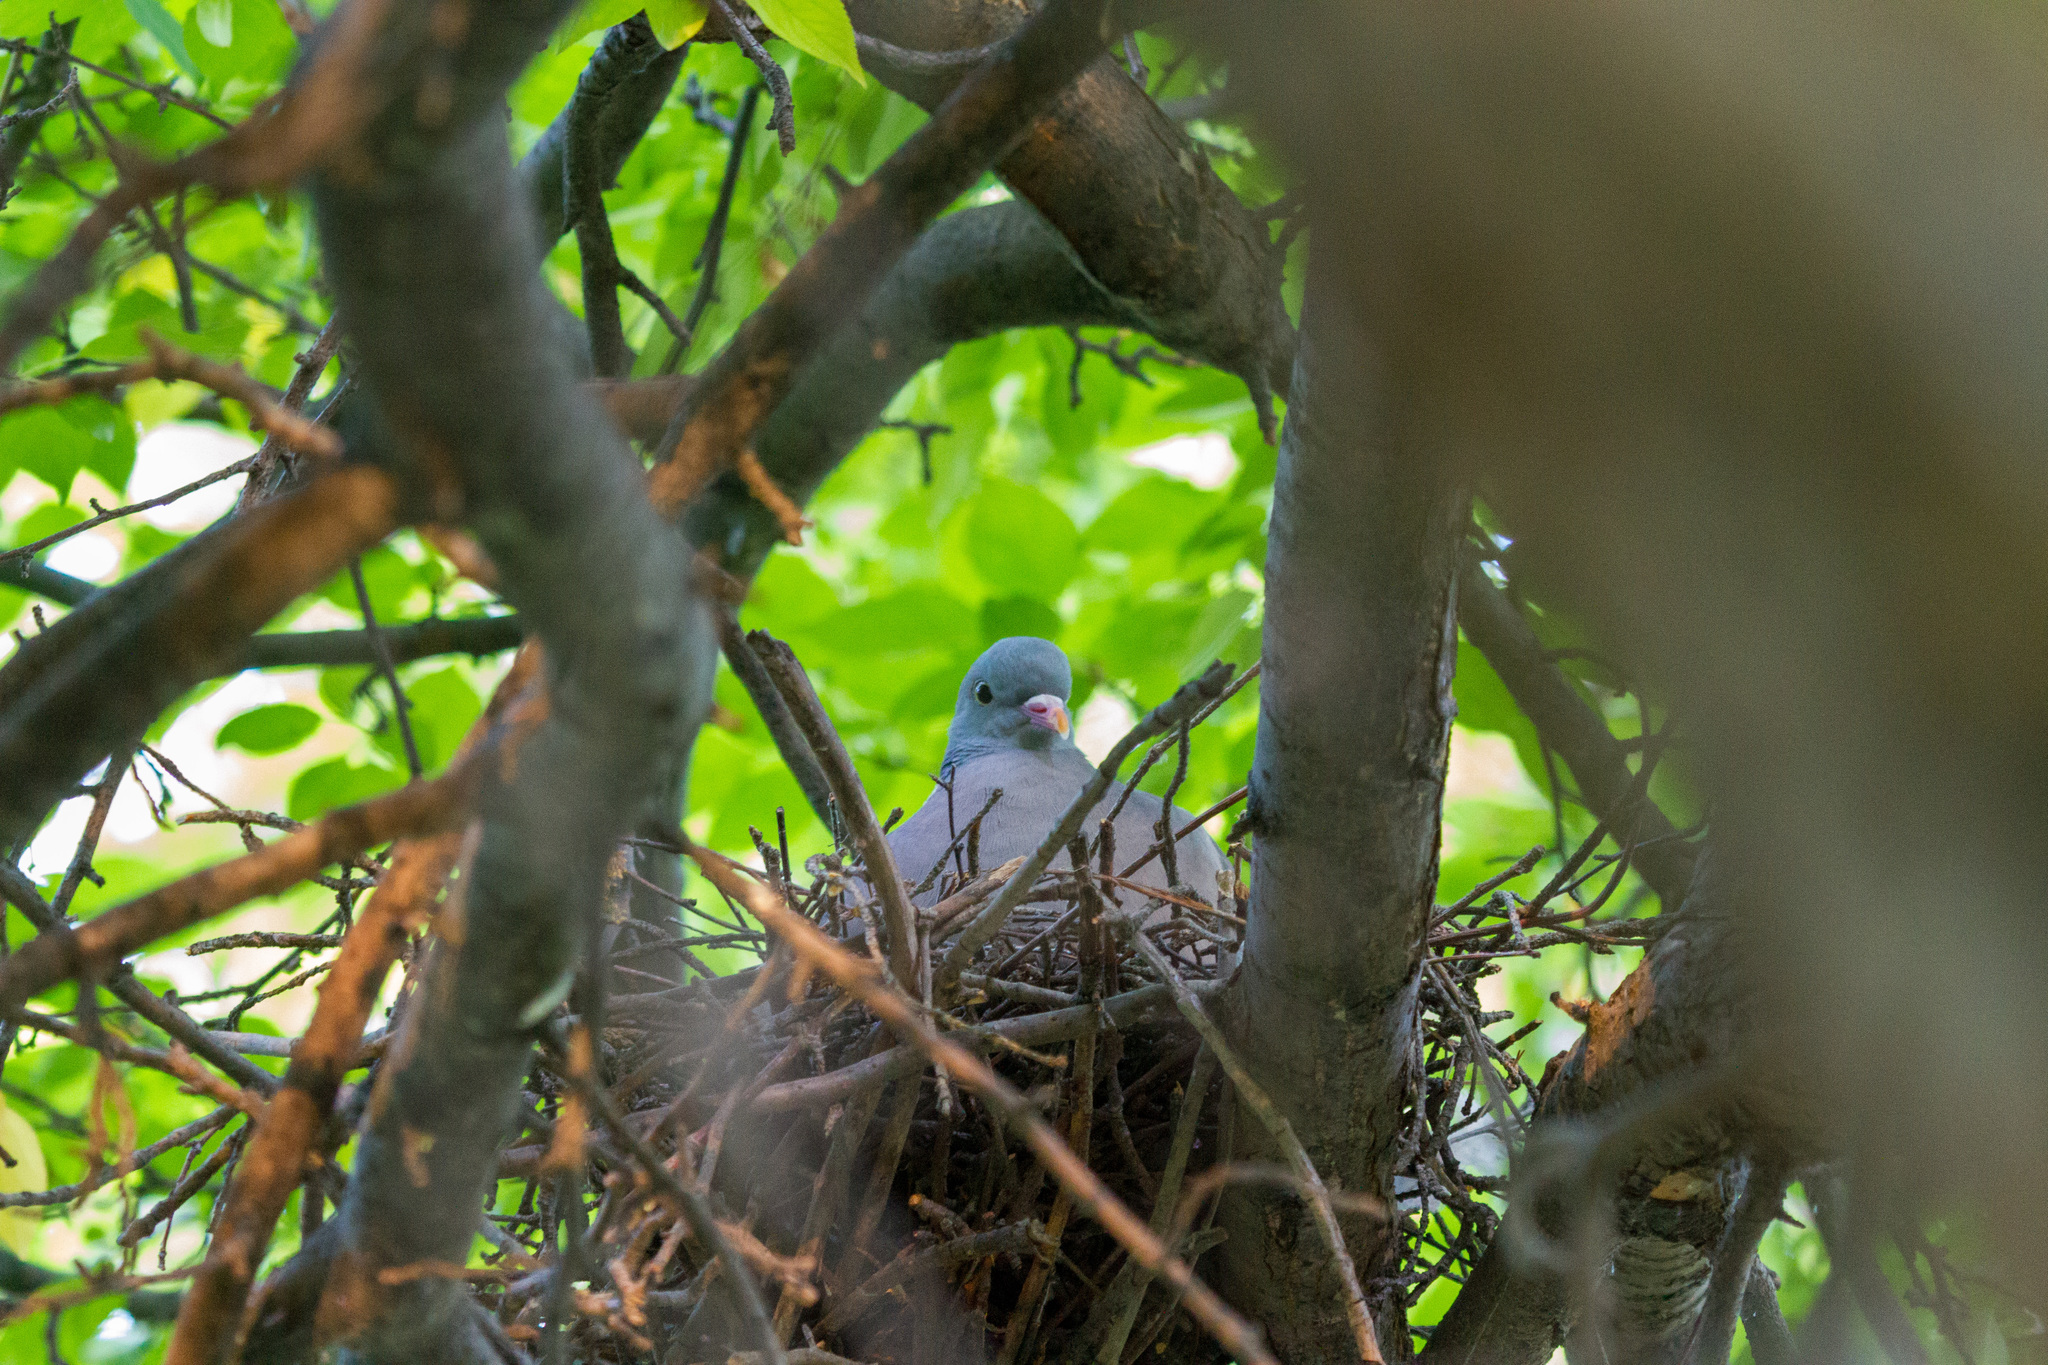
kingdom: Animalia
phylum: Chordata
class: Aves
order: Columbiformes
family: Columbidae
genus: Columba
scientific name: Columba palumbus
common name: Common wood pigeon
